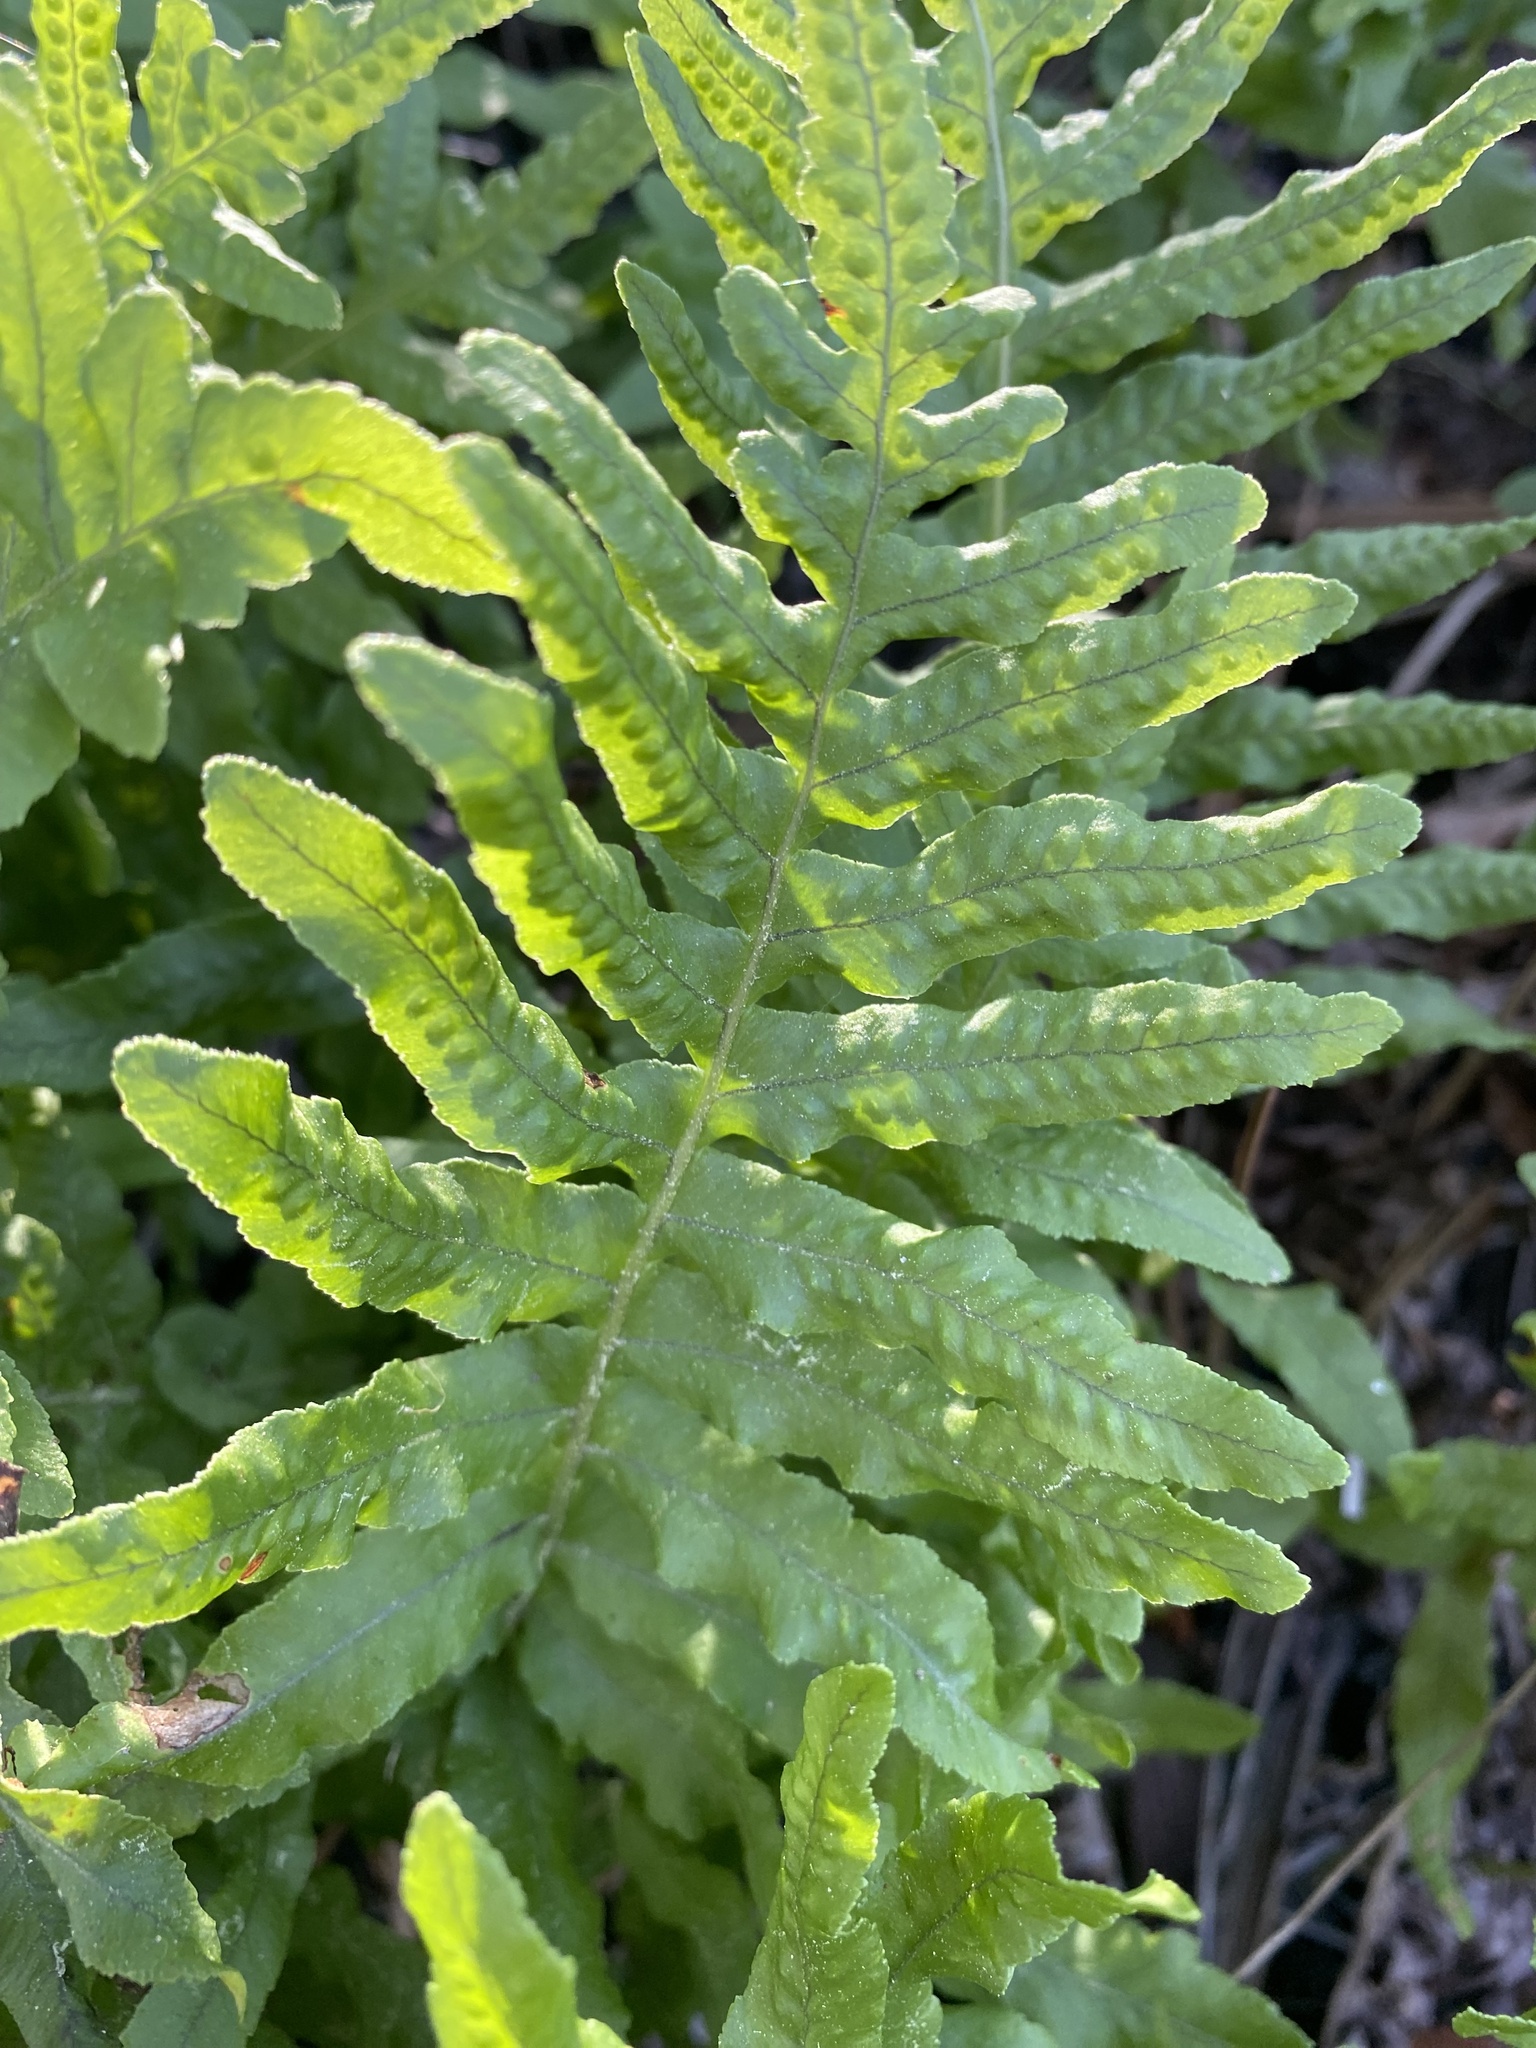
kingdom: Plantae
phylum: Tracheophyta
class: Polypodiopsida
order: Polypodiales
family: Polypodiaceae
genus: Polypodium
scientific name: Polypodium californicum
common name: California polypody
